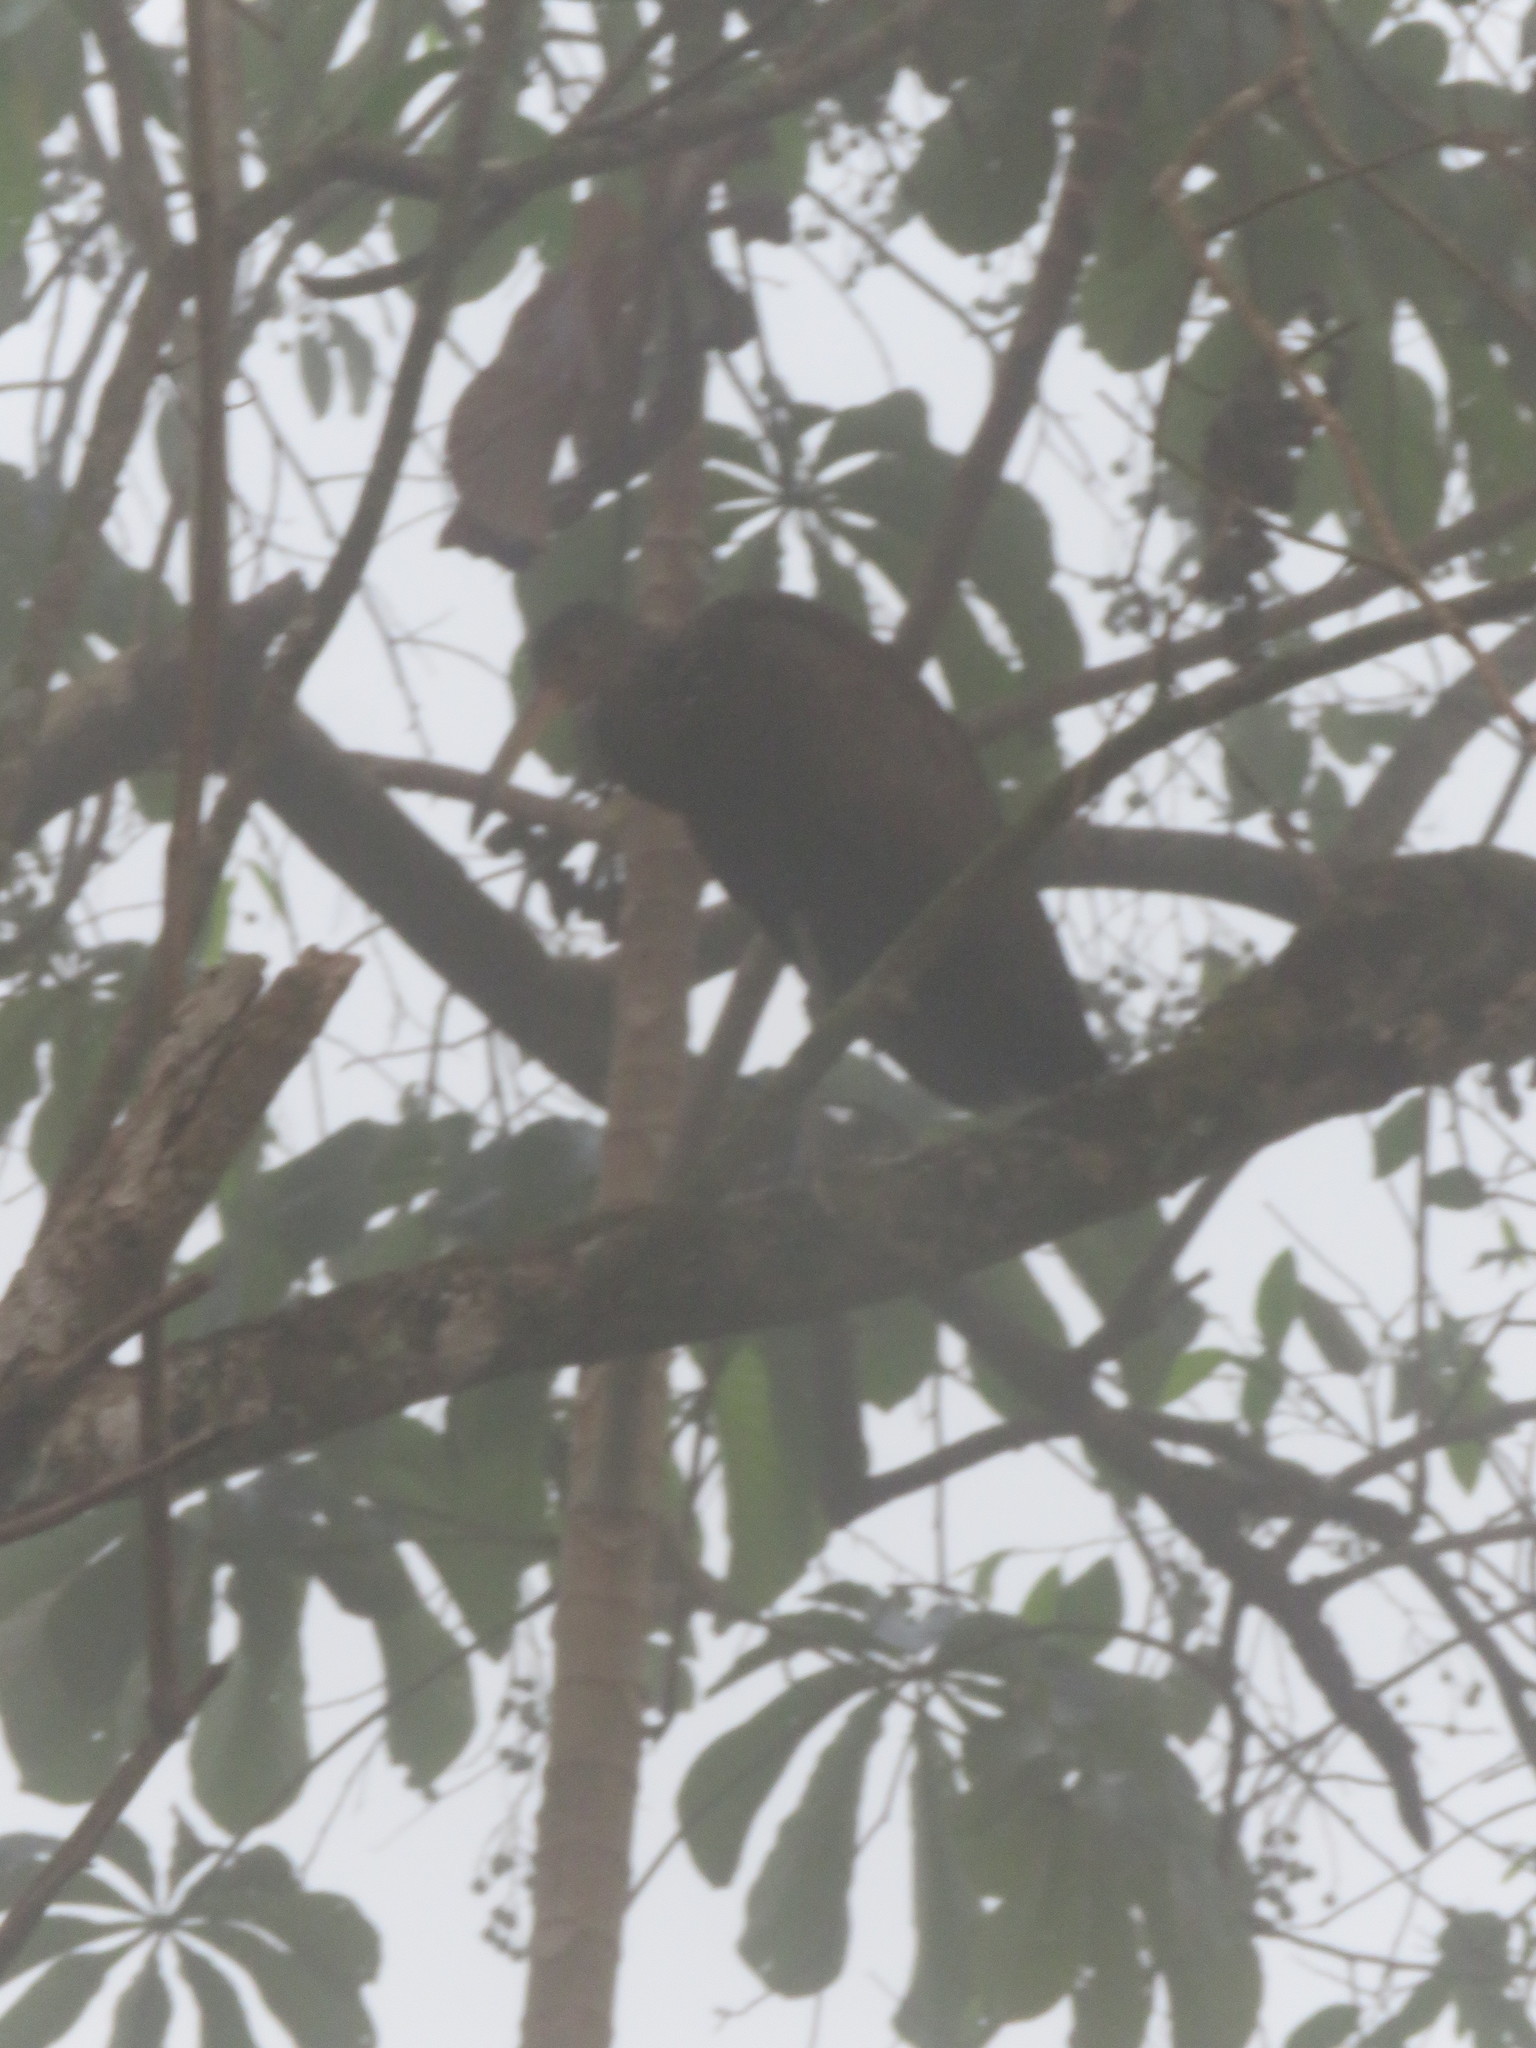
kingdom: Animalia
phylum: Chordata
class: Aves
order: Gruiformes
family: Aramidae
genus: Aramus
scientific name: Aramus guarauna
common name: Limpkin
